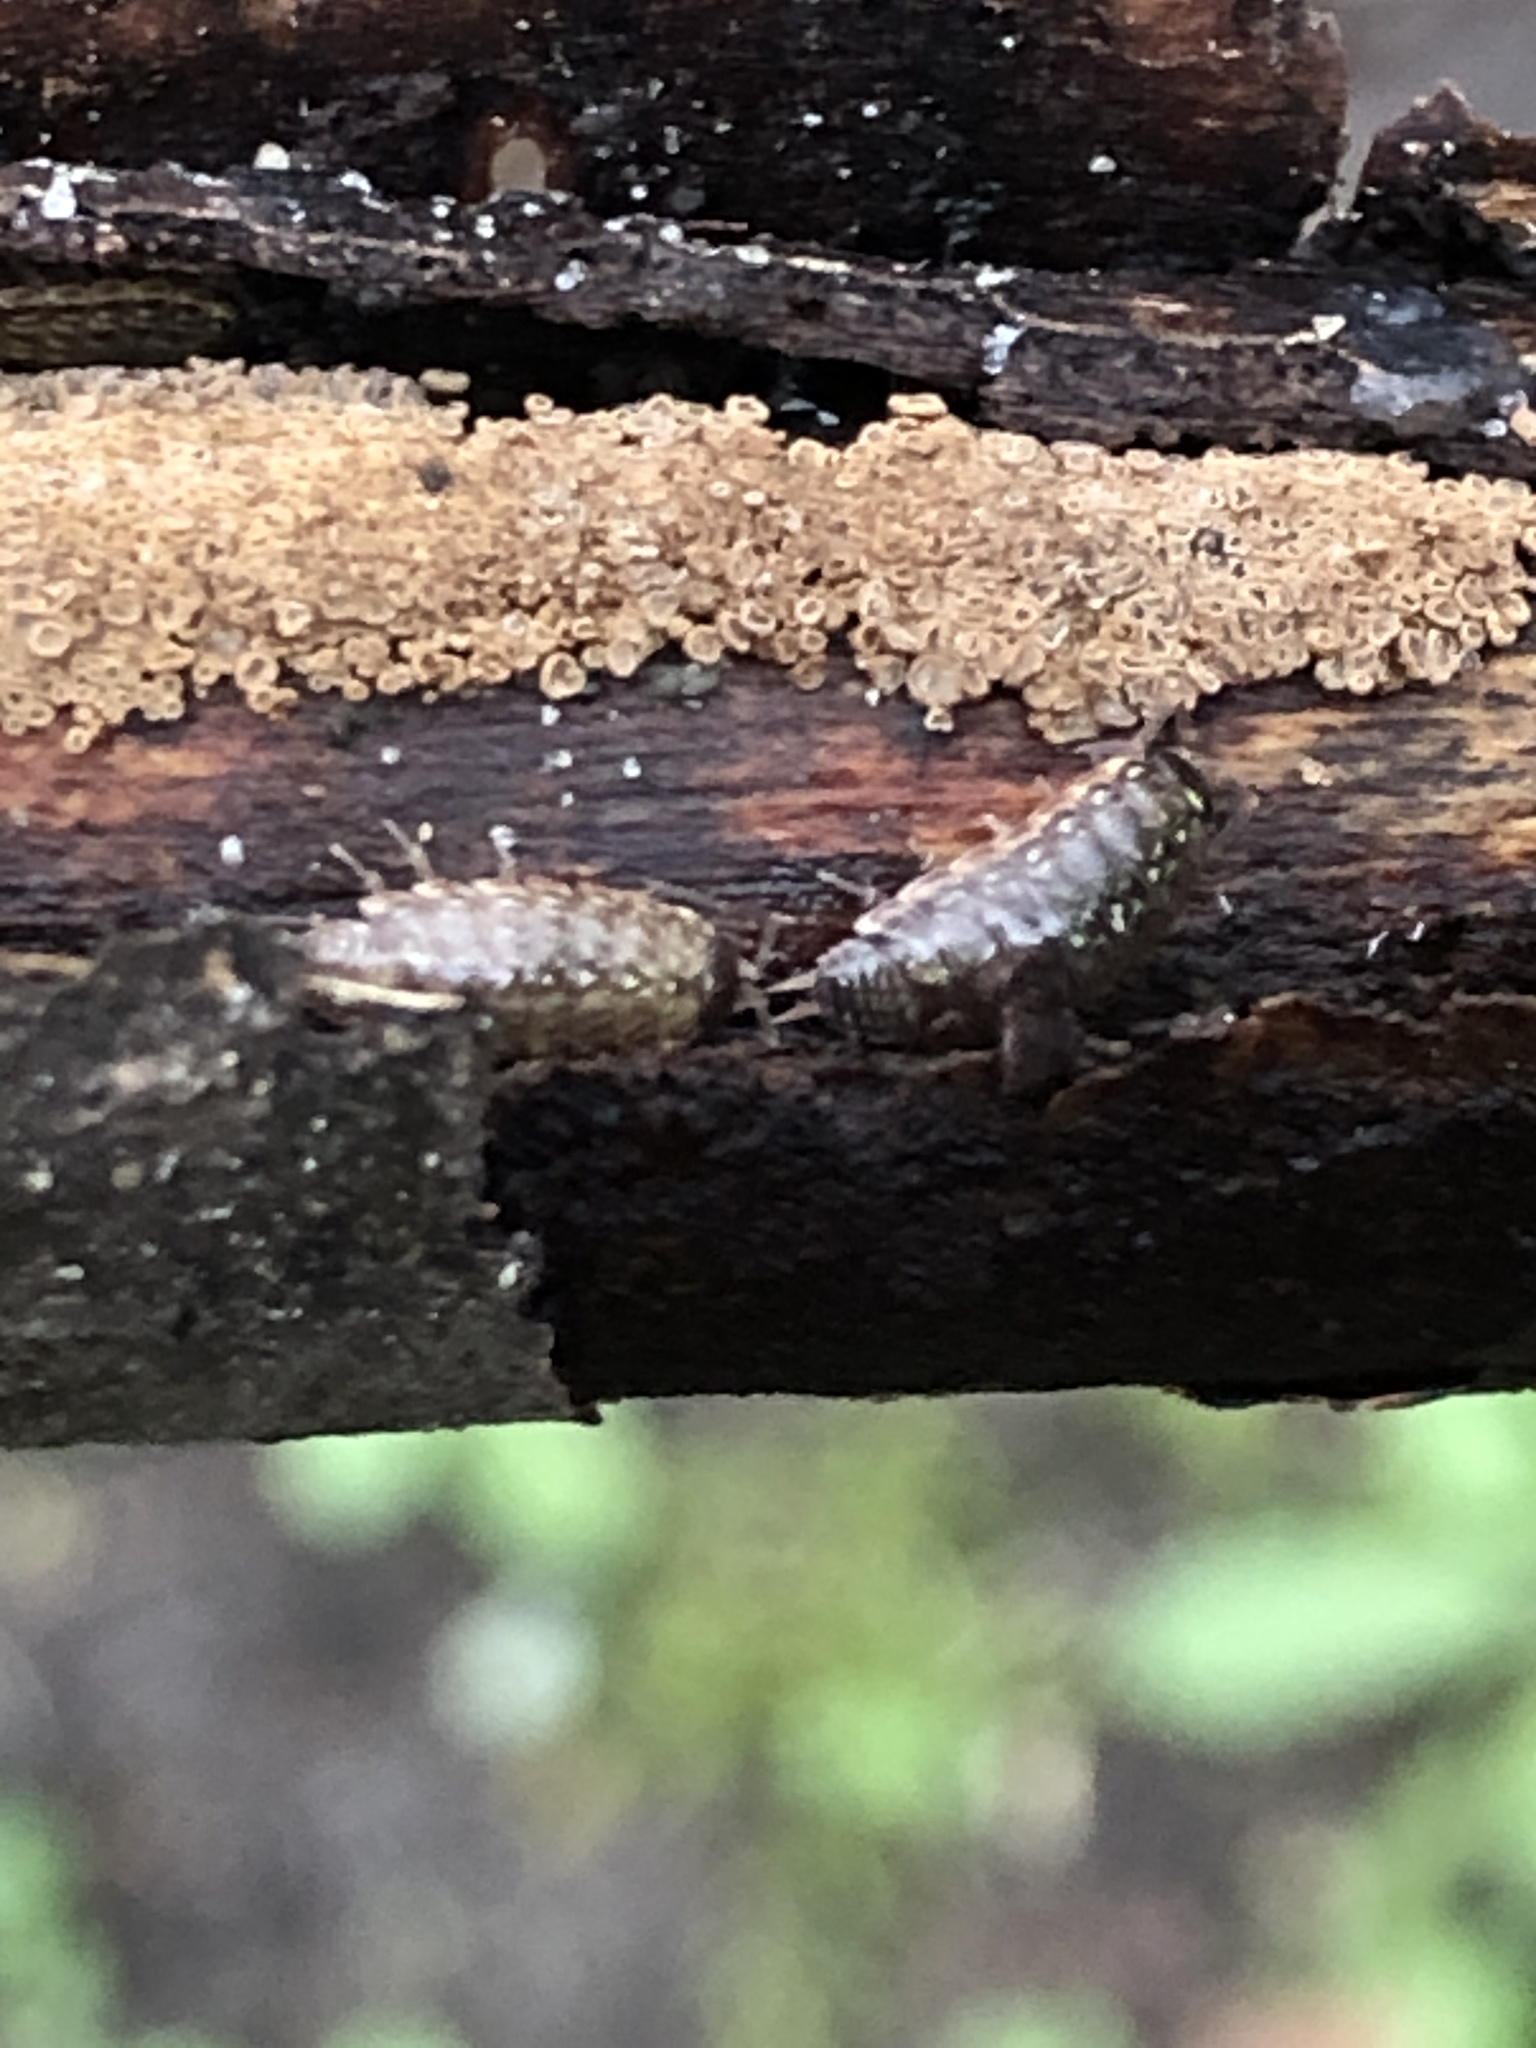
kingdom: Animalia
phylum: Arthropoda
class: Malacostraca
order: Isopoda
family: Philosciidae
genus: Philoscia
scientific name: Philoscia muscorum
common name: Common striped woodlouse
